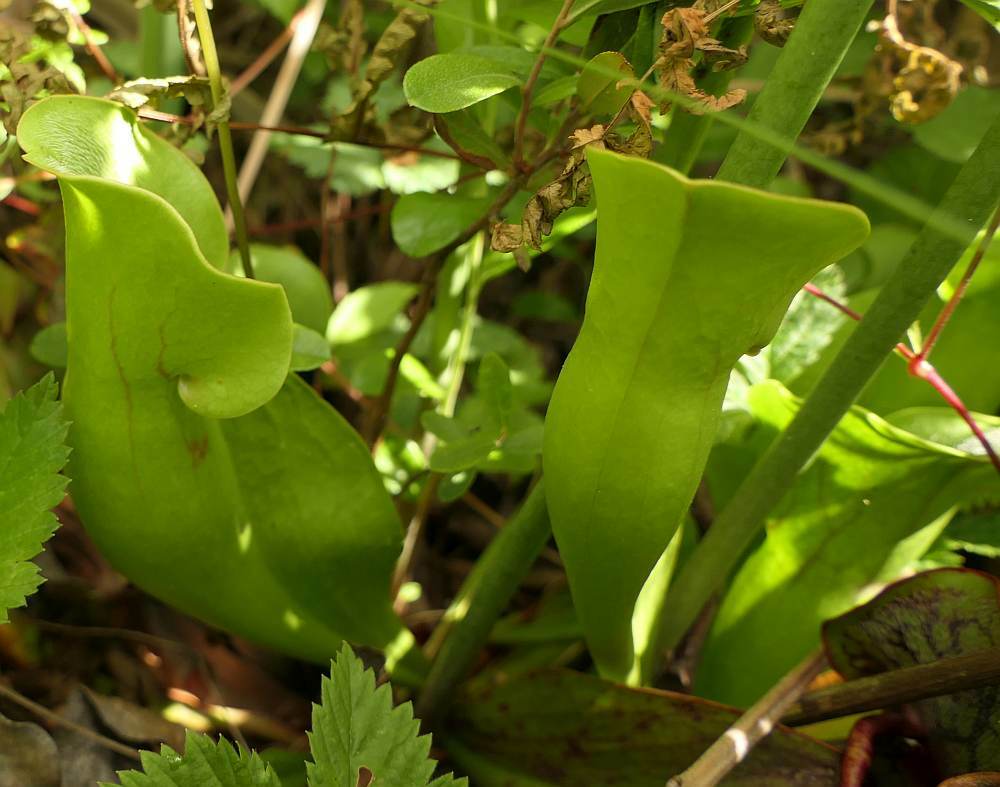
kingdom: Plantae
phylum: Tracheophyta
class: Magnoliopsida
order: Ericales
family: Sarraceniaceae
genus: Sarracenia
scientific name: Sarracenia purpurea
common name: Pitcherplant
